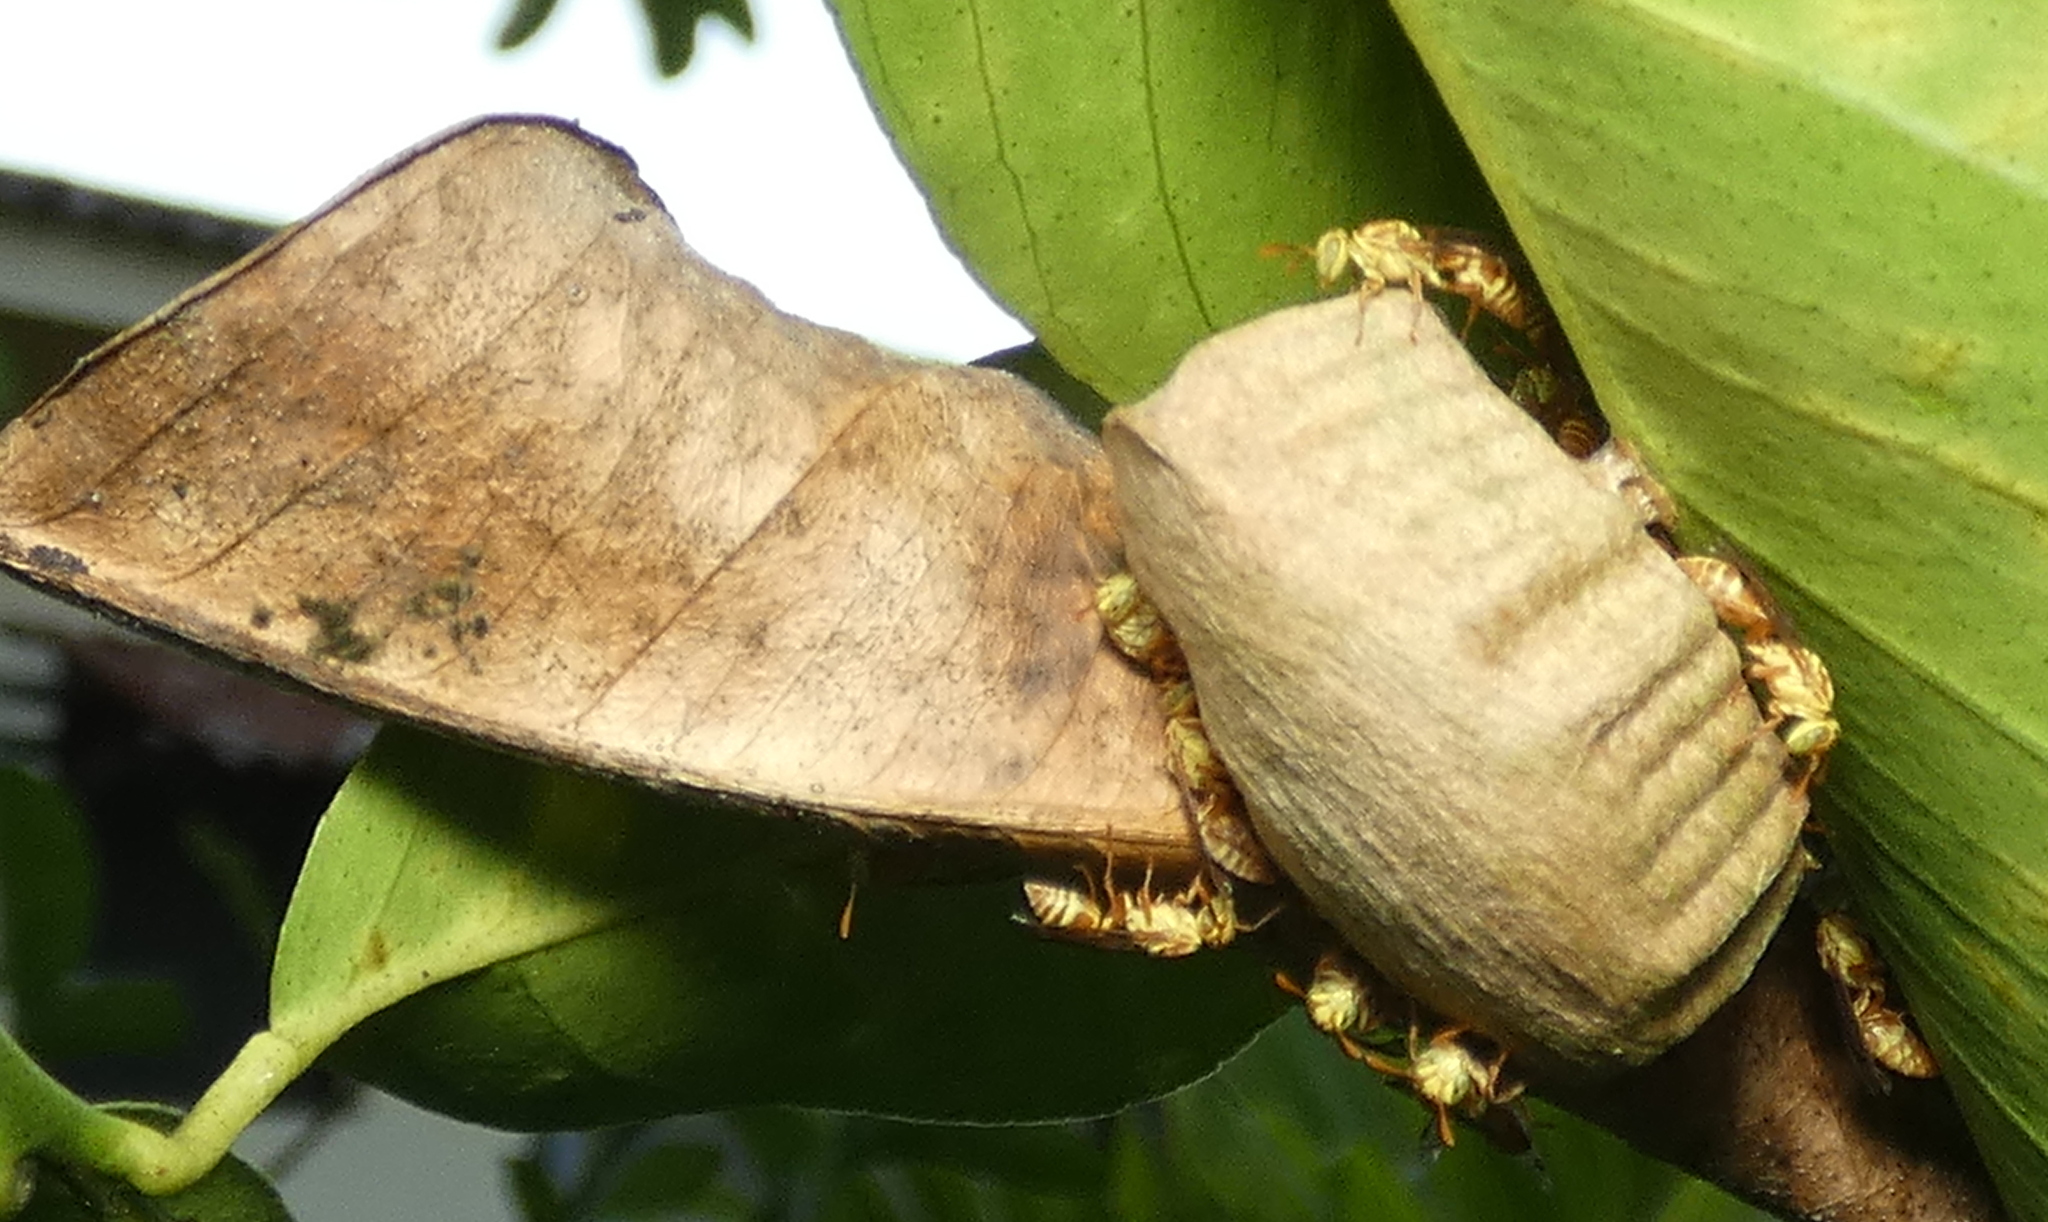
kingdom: Animalia
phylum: Arthropoda
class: Insecta
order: Hymenoptera
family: Vespidae
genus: Protopolybia
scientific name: Protopolybia potiguara
